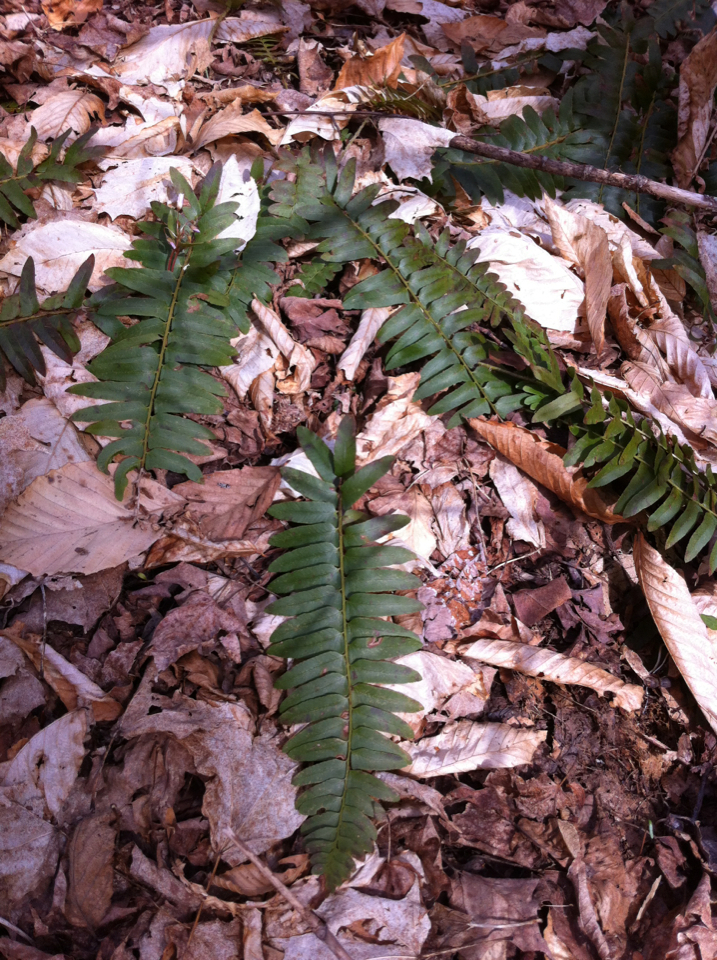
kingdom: Plantae
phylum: Tracheophyta
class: Polypodiopsida
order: Polypodiales
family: Dryopteridaceae
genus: Polystichum
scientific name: Polystichum acrostichoides
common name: Christmas fern
